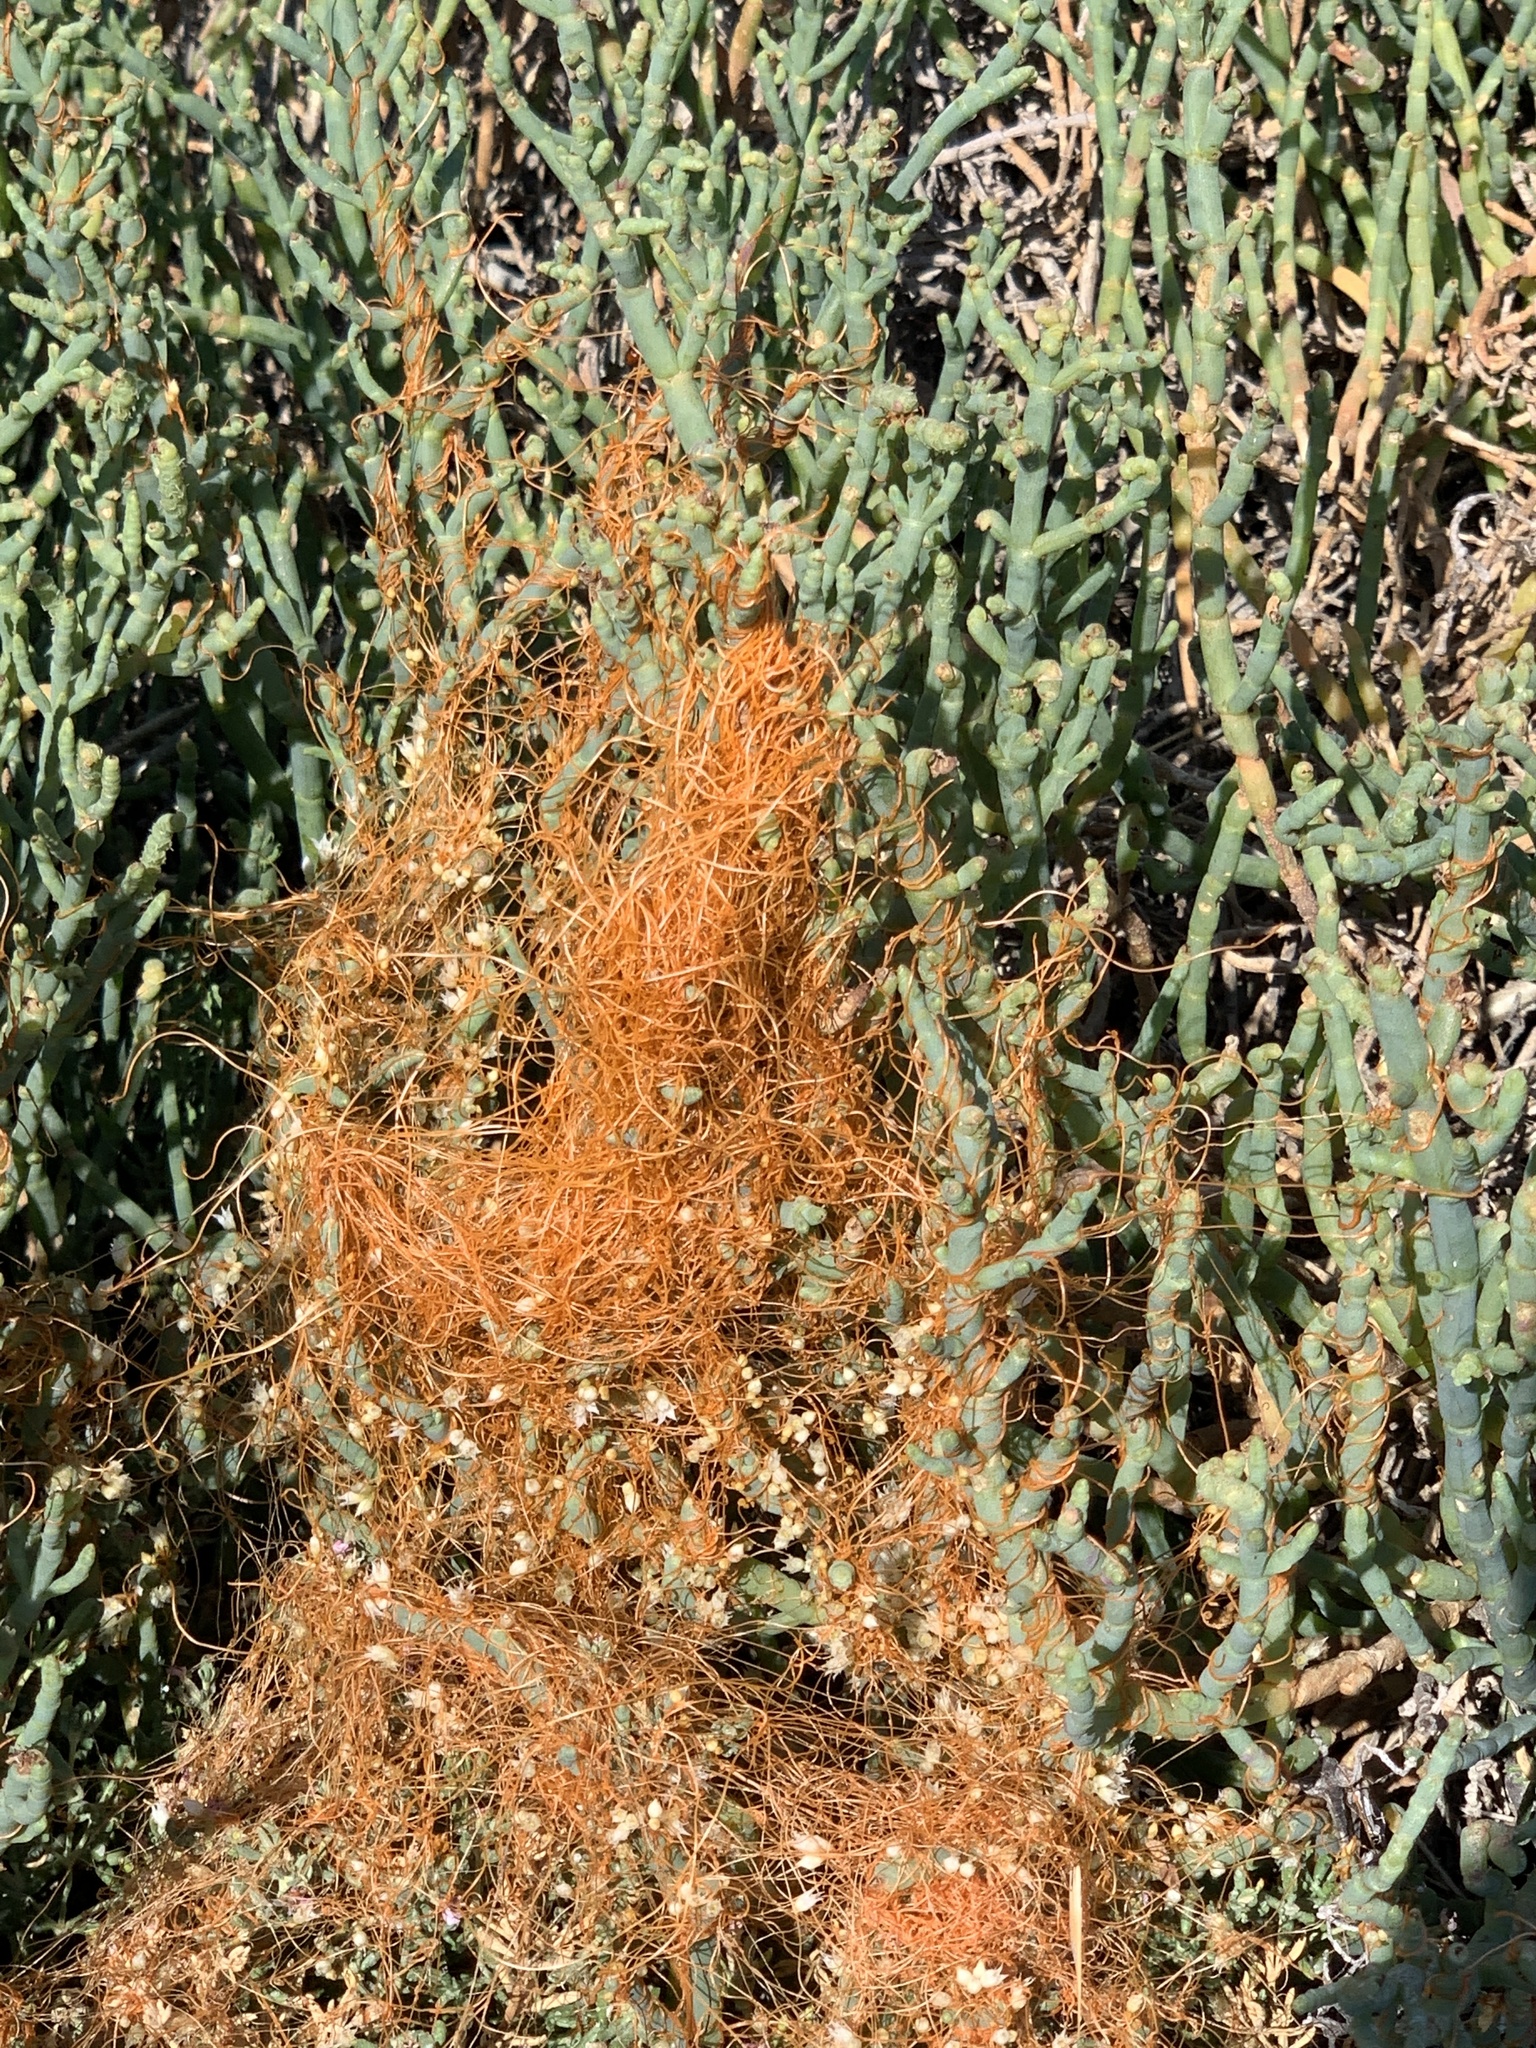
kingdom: Plantae
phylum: Tracheophyta
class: Magnoliopsida
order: Solanales
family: Convolvulaceae
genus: Cuscuta
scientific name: Cuscuta pacifica
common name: Large saltmarsh dodder
